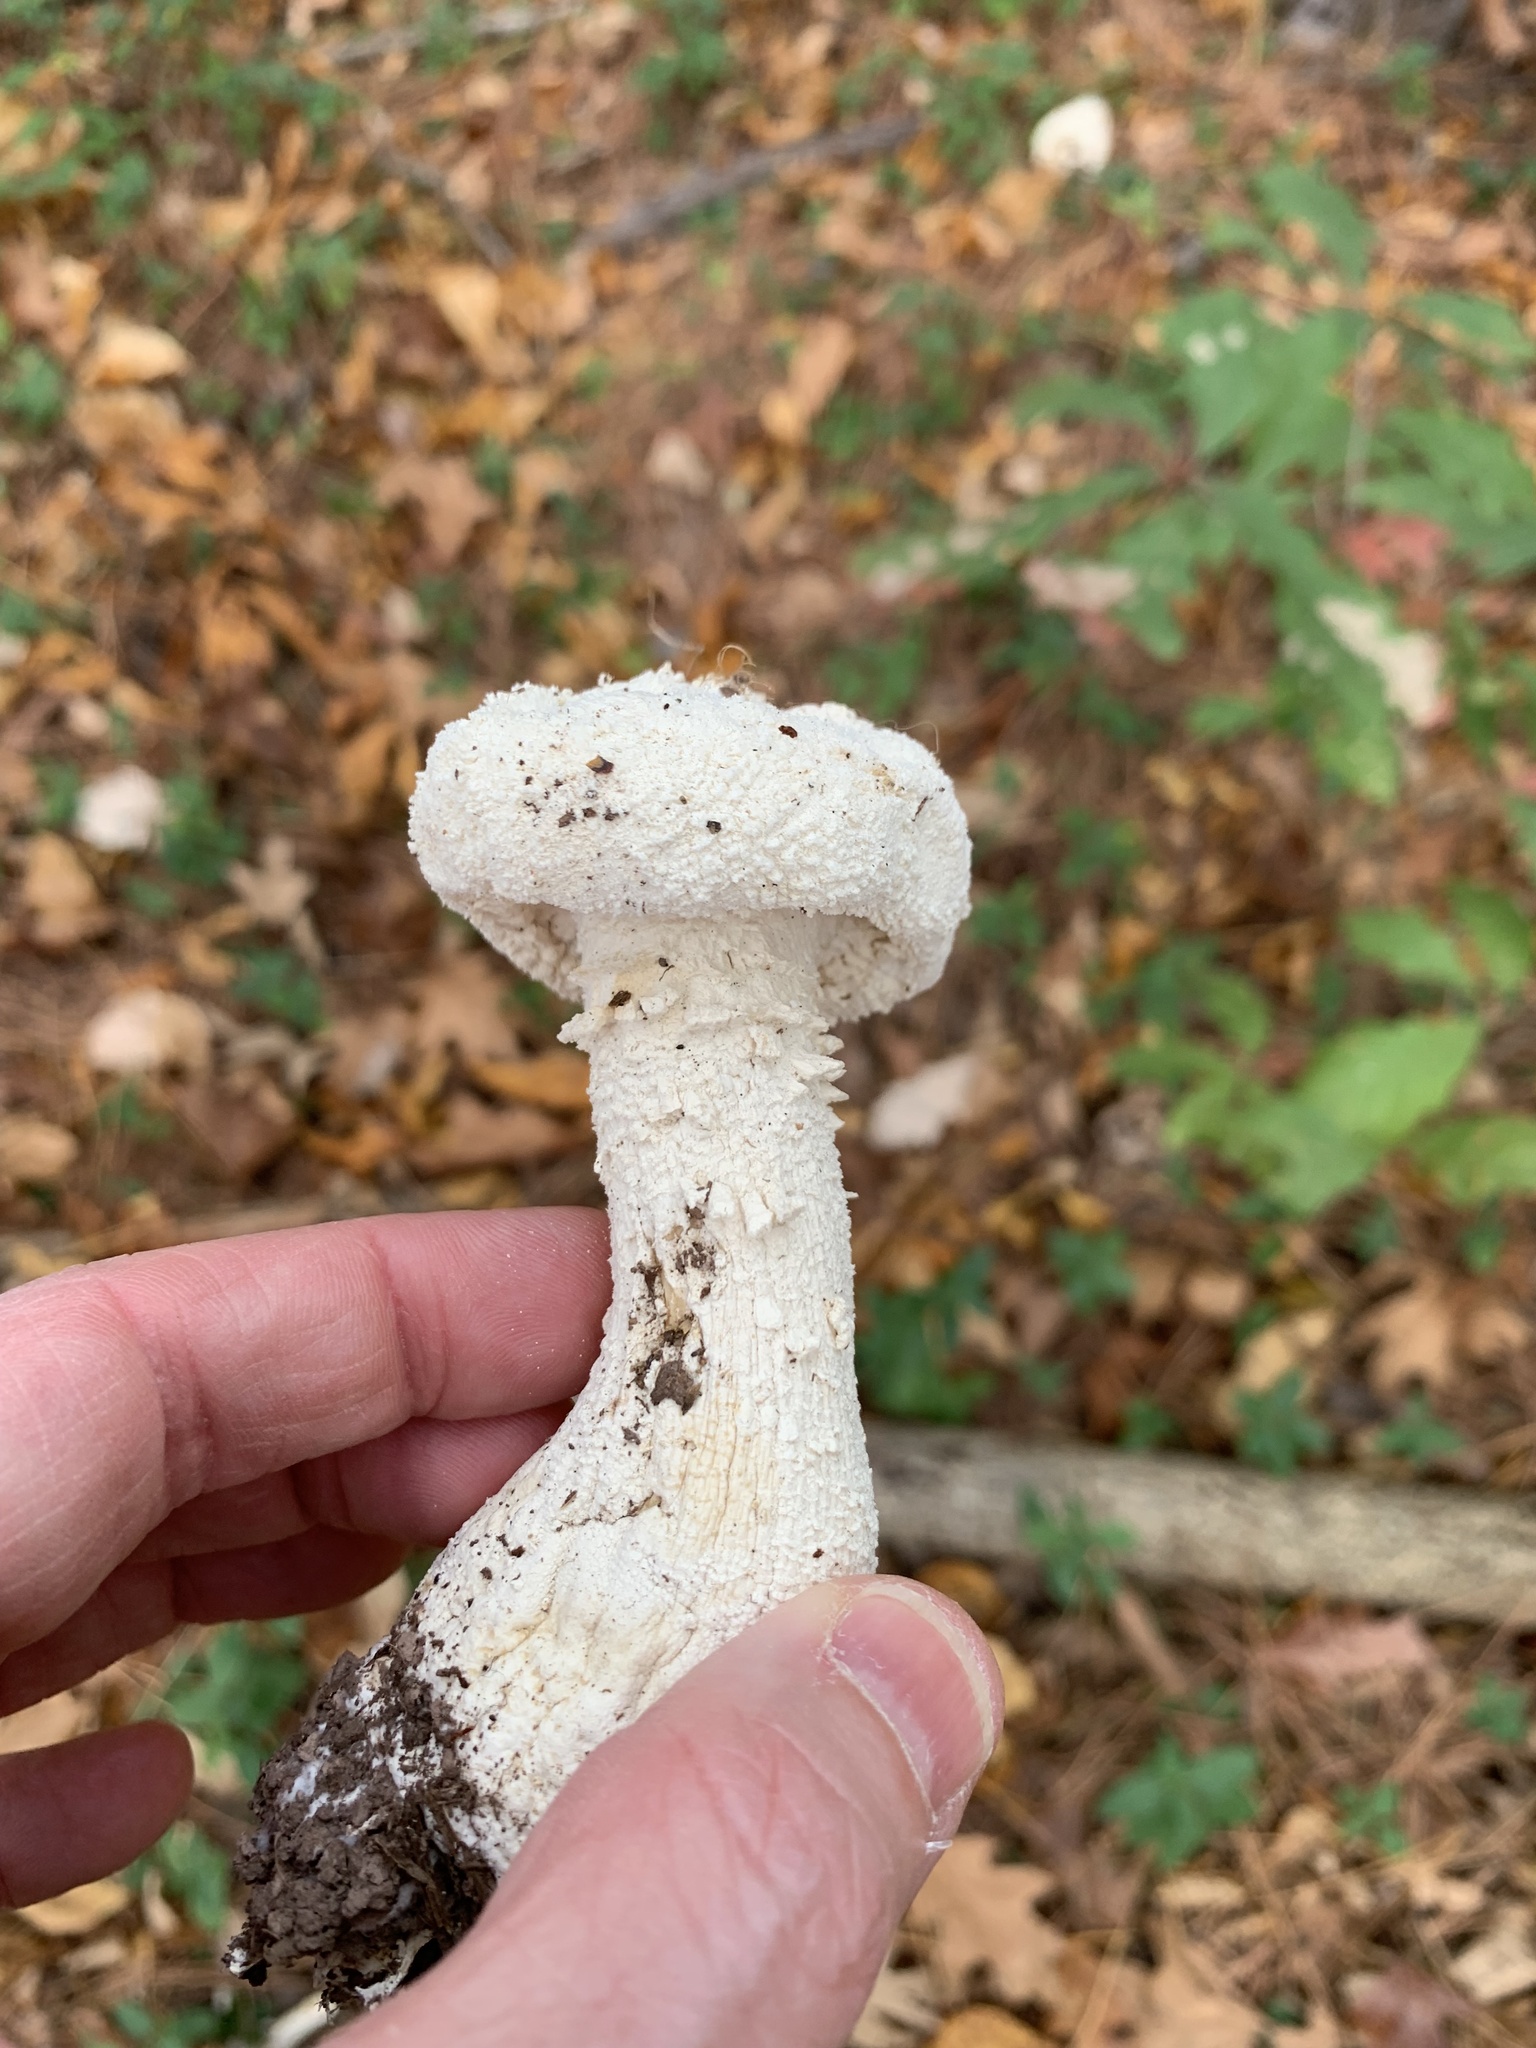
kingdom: Fungi
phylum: Basidiomycota
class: Agaricomycetes
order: Agaricales
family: Amanitaceae
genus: Amanita
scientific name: Amanita polypyramis
